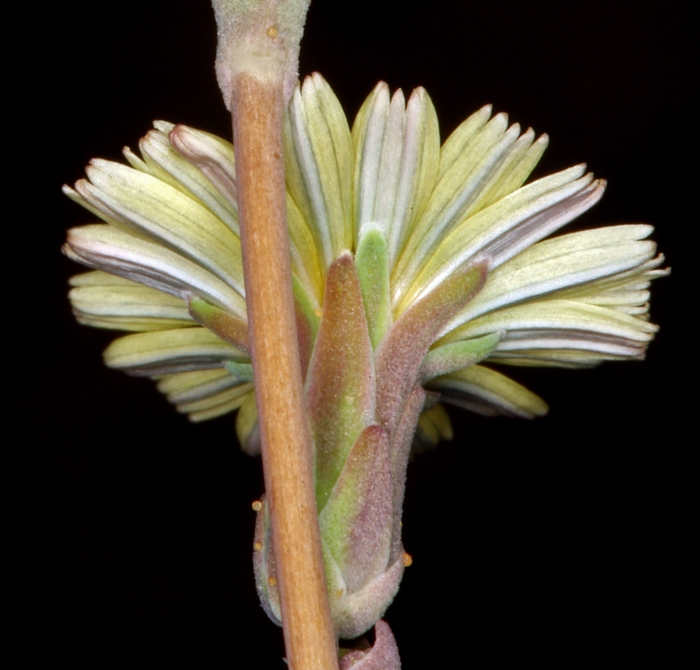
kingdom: Plantae
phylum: Tracheophyta
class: Magnoliopsida
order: Asterales
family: Asteraceae
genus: Lactuca
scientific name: Lactuca serriola
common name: Prickly lettuce
